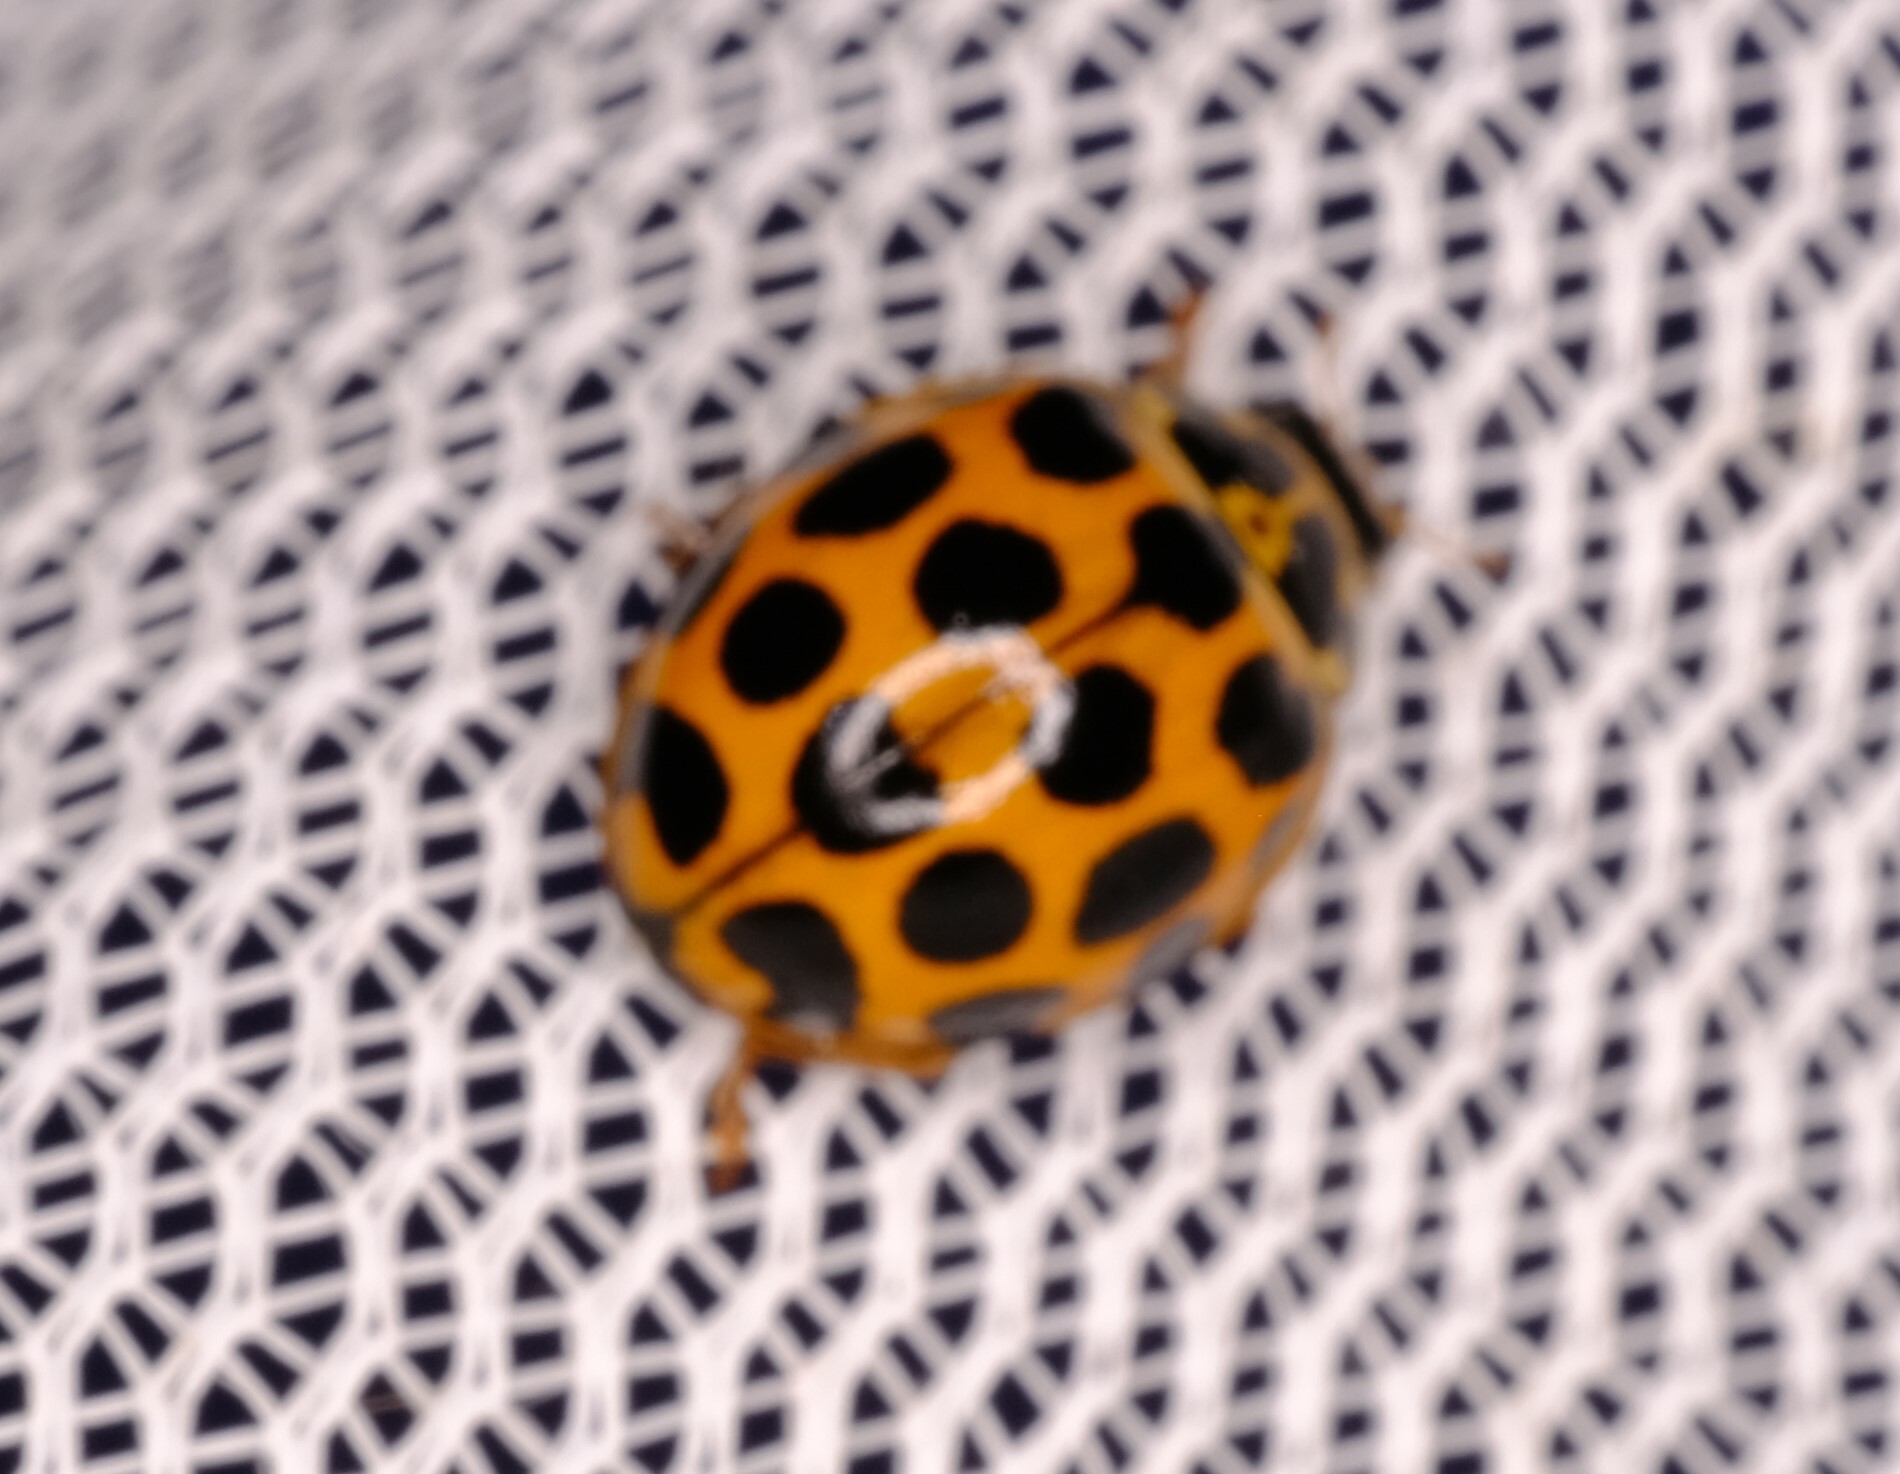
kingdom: Animalia
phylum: Arthropoda
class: Insecta
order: Coleoptera
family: Coccinellidae
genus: Harmonia
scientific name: Harmonia conformis
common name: Common spotted ladybird beetle
